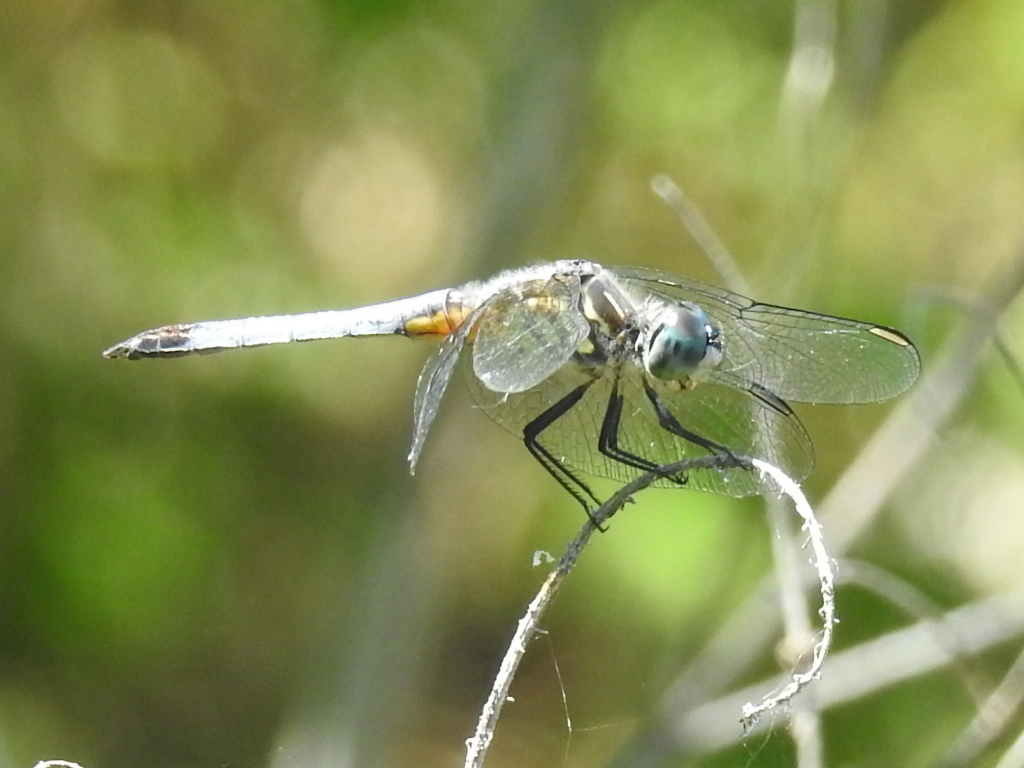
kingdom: Animalia
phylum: Arthropoda
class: Insecta
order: Odonata
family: Libellulidae
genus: Pachydiplax
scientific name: Pachydiplax longipennis
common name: Blue dasher
